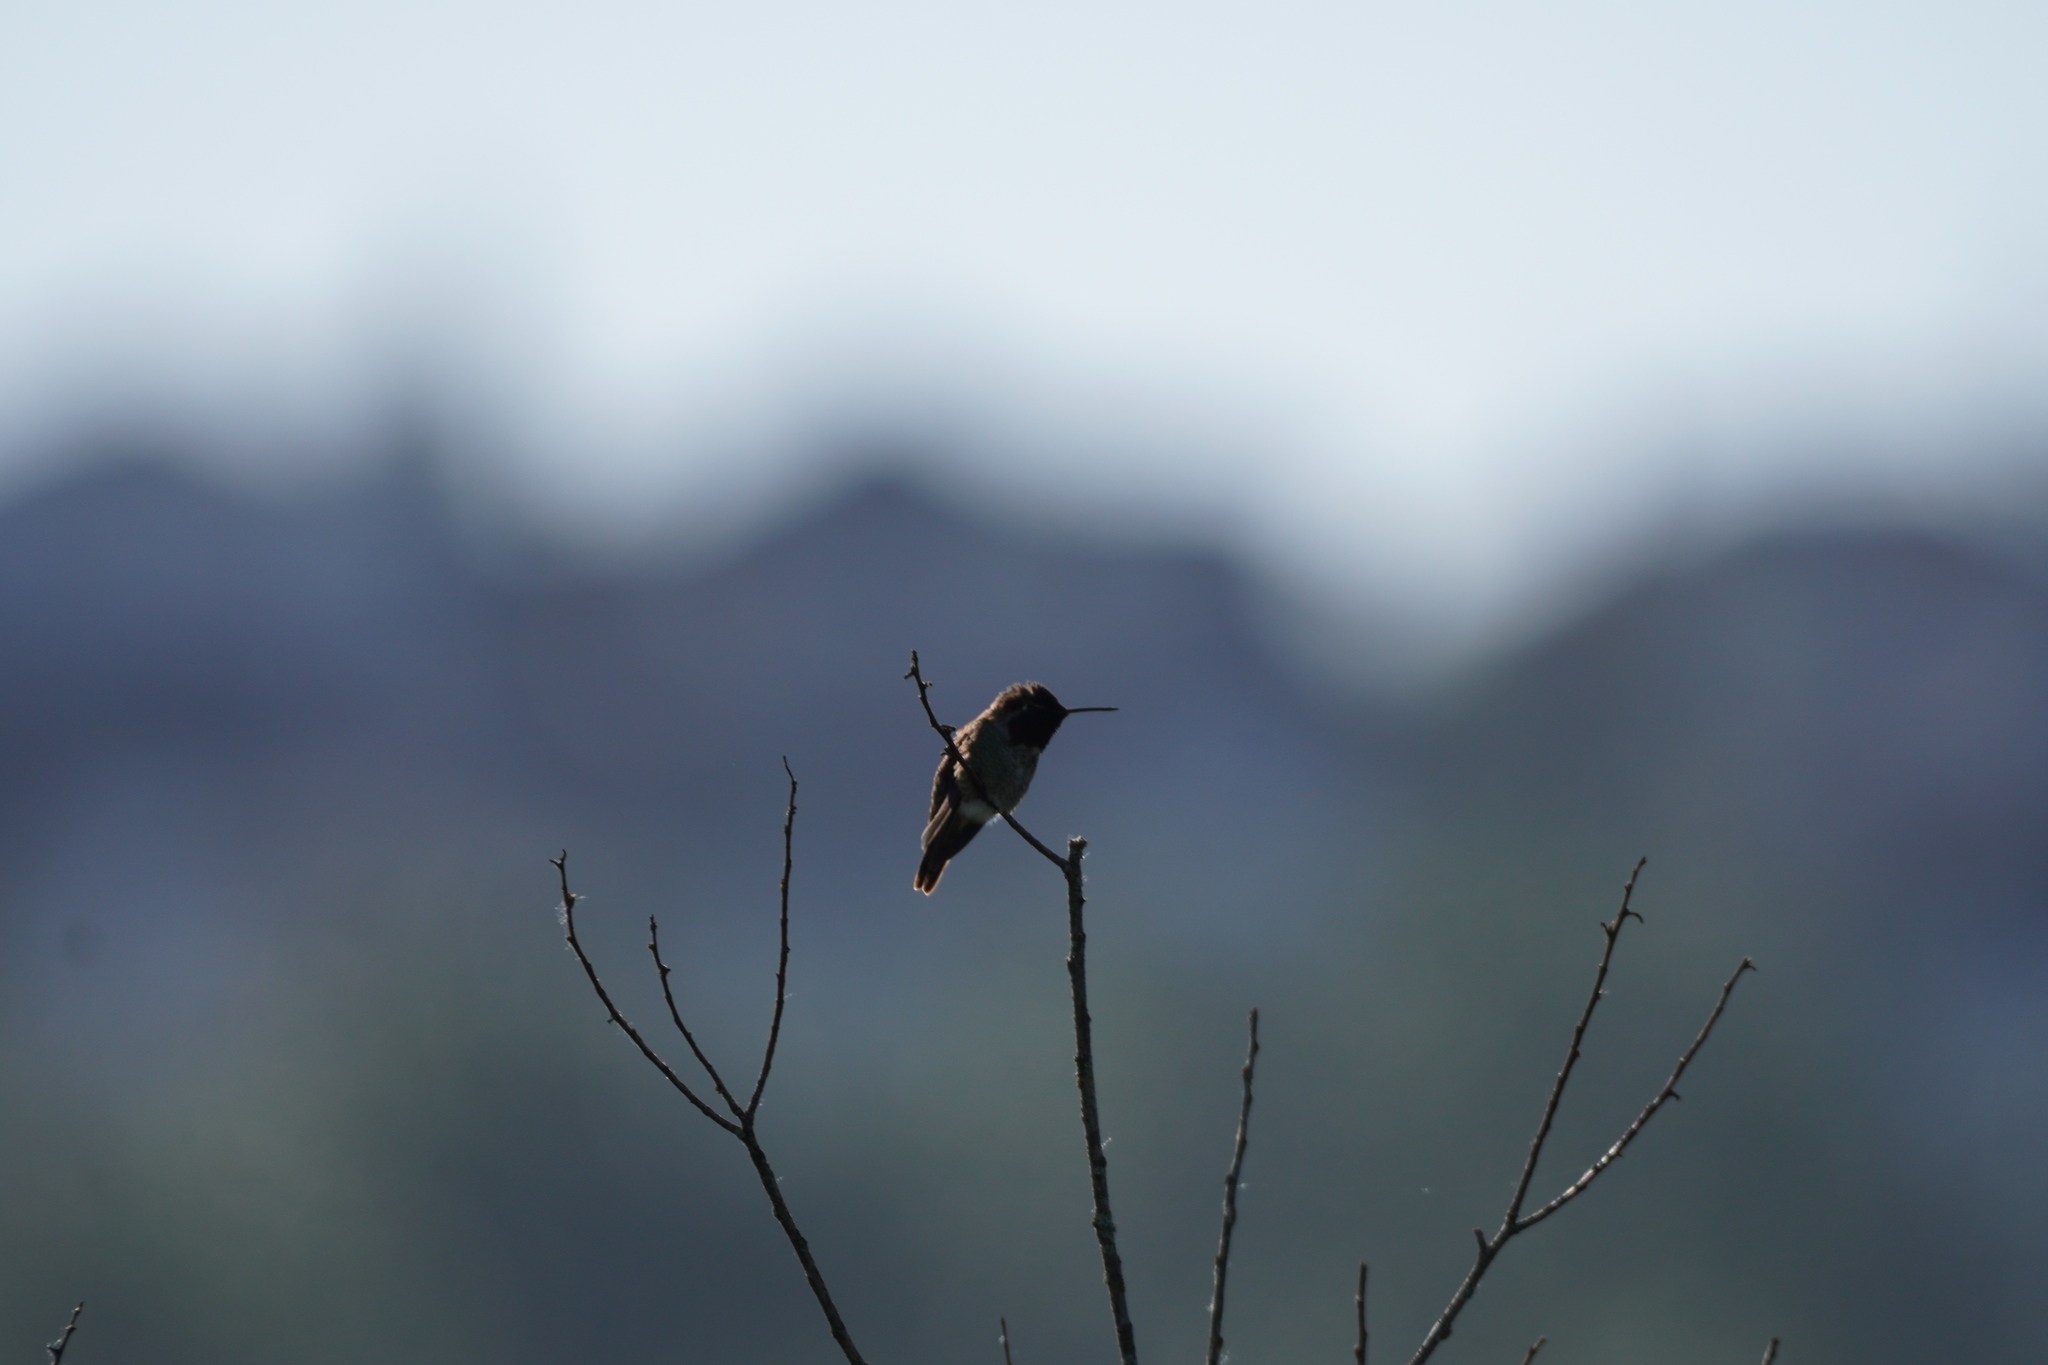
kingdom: Animalia
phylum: Chordata
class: Aves
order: Apodiformes
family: Trochilidae
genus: Calypte
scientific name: Calypte anna
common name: Anna's hummingbird
